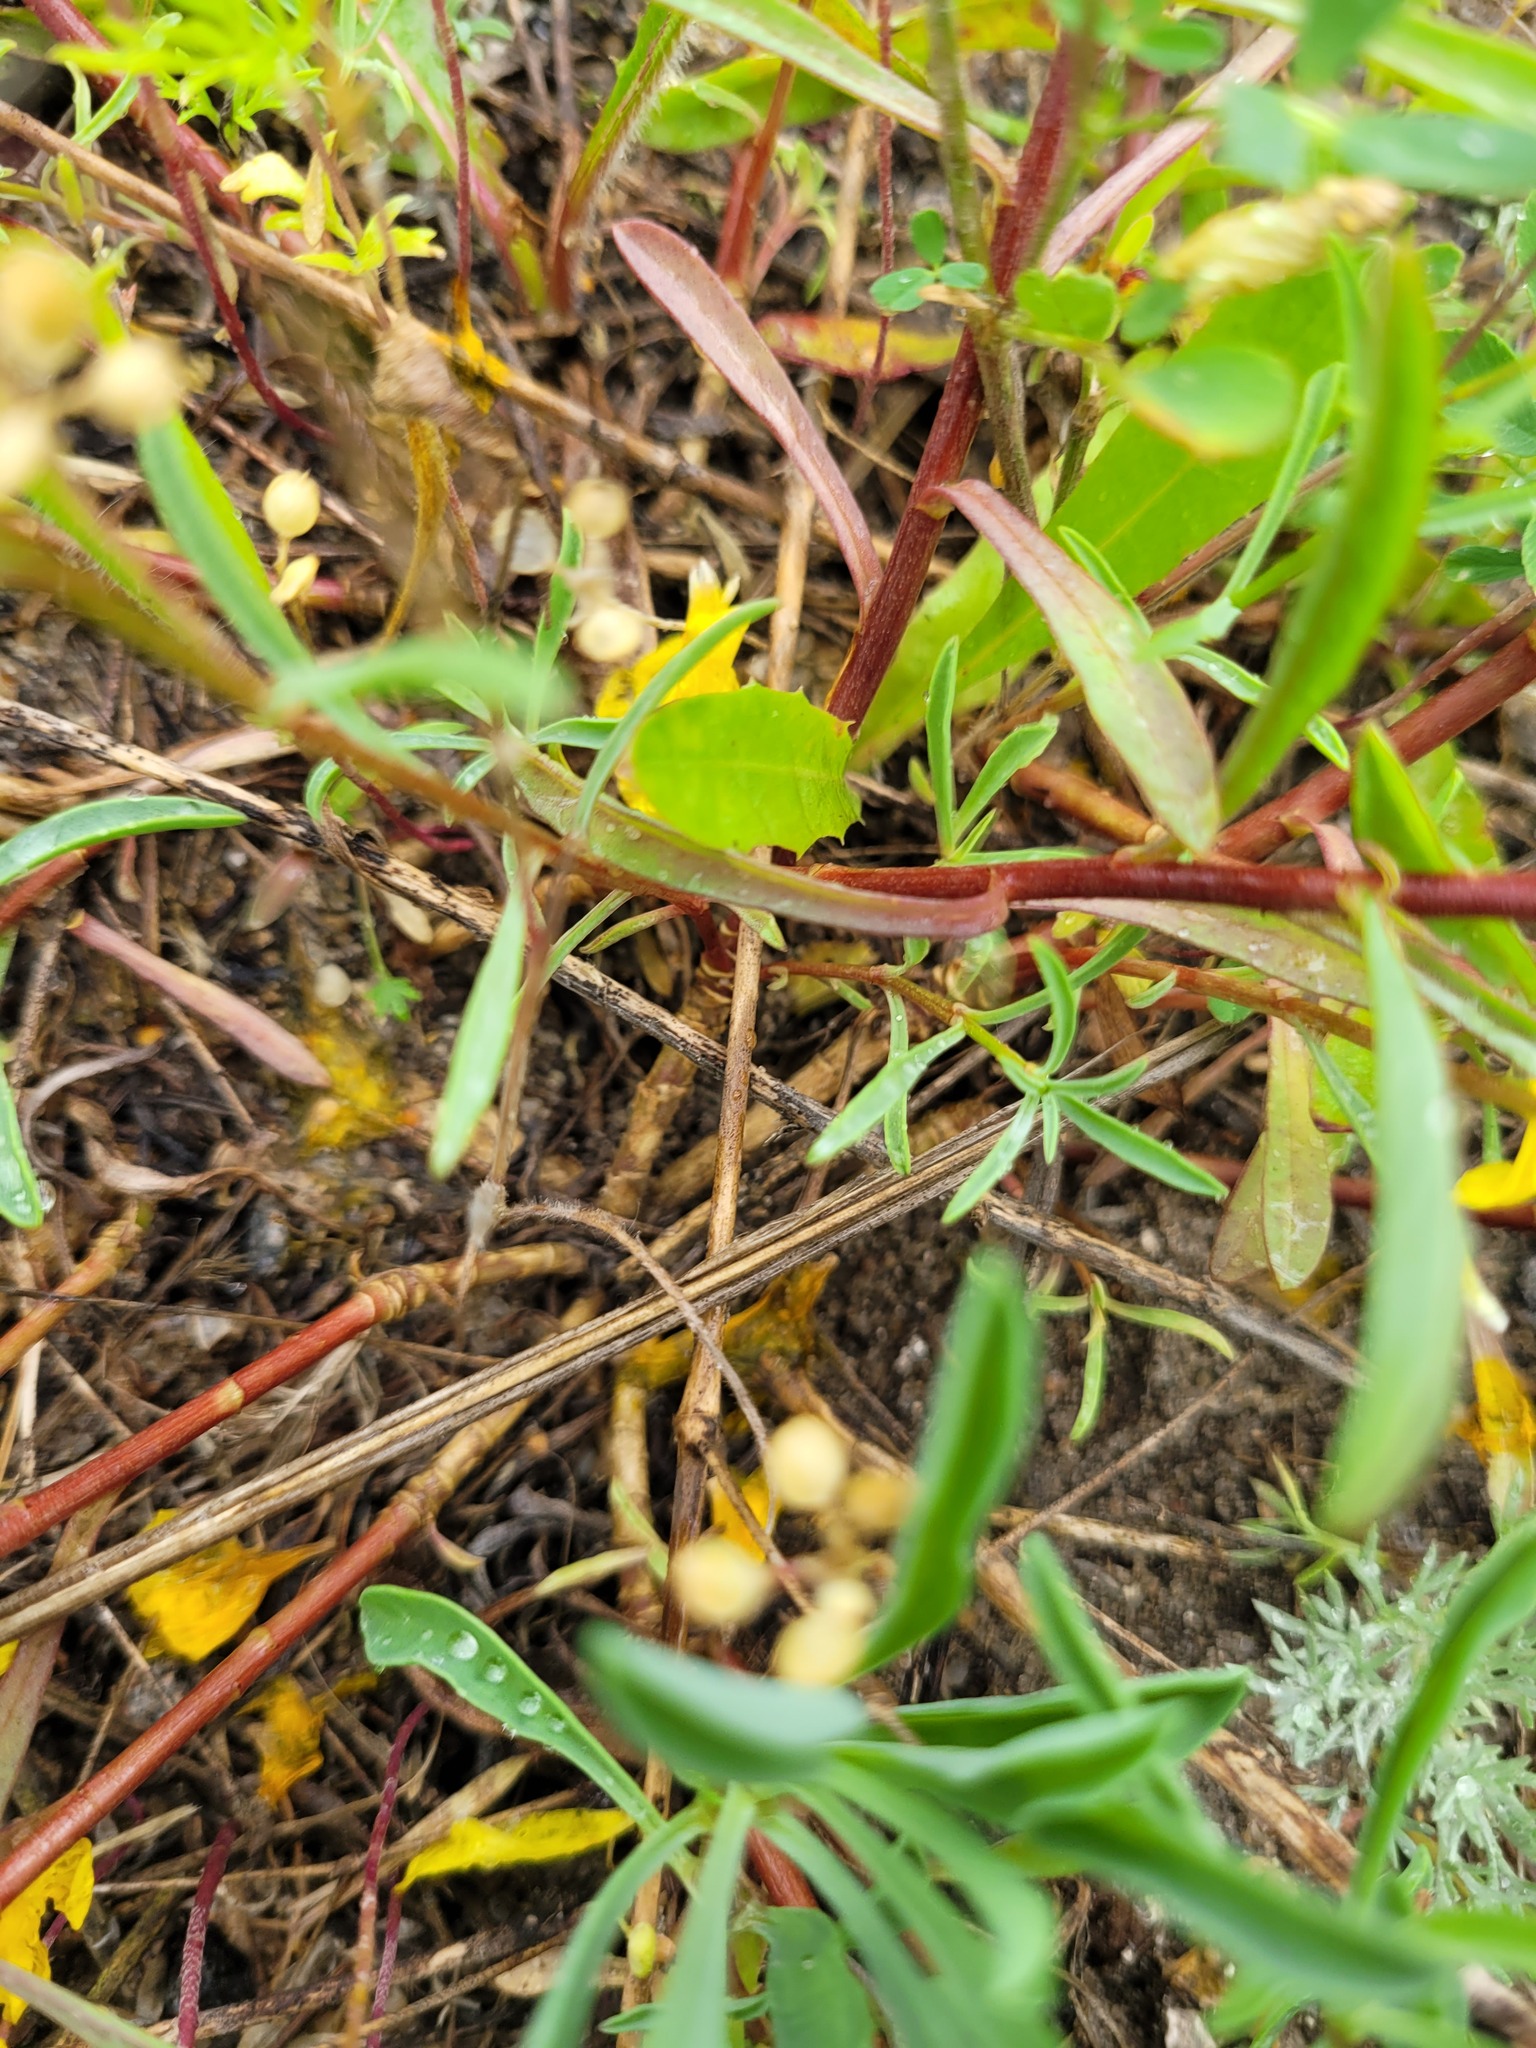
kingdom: Plantae
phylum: Tracheophyta
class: Magnoliopsida
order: Malpighiales
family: Linaceae
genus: Linum
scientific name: Linum ucranicum
